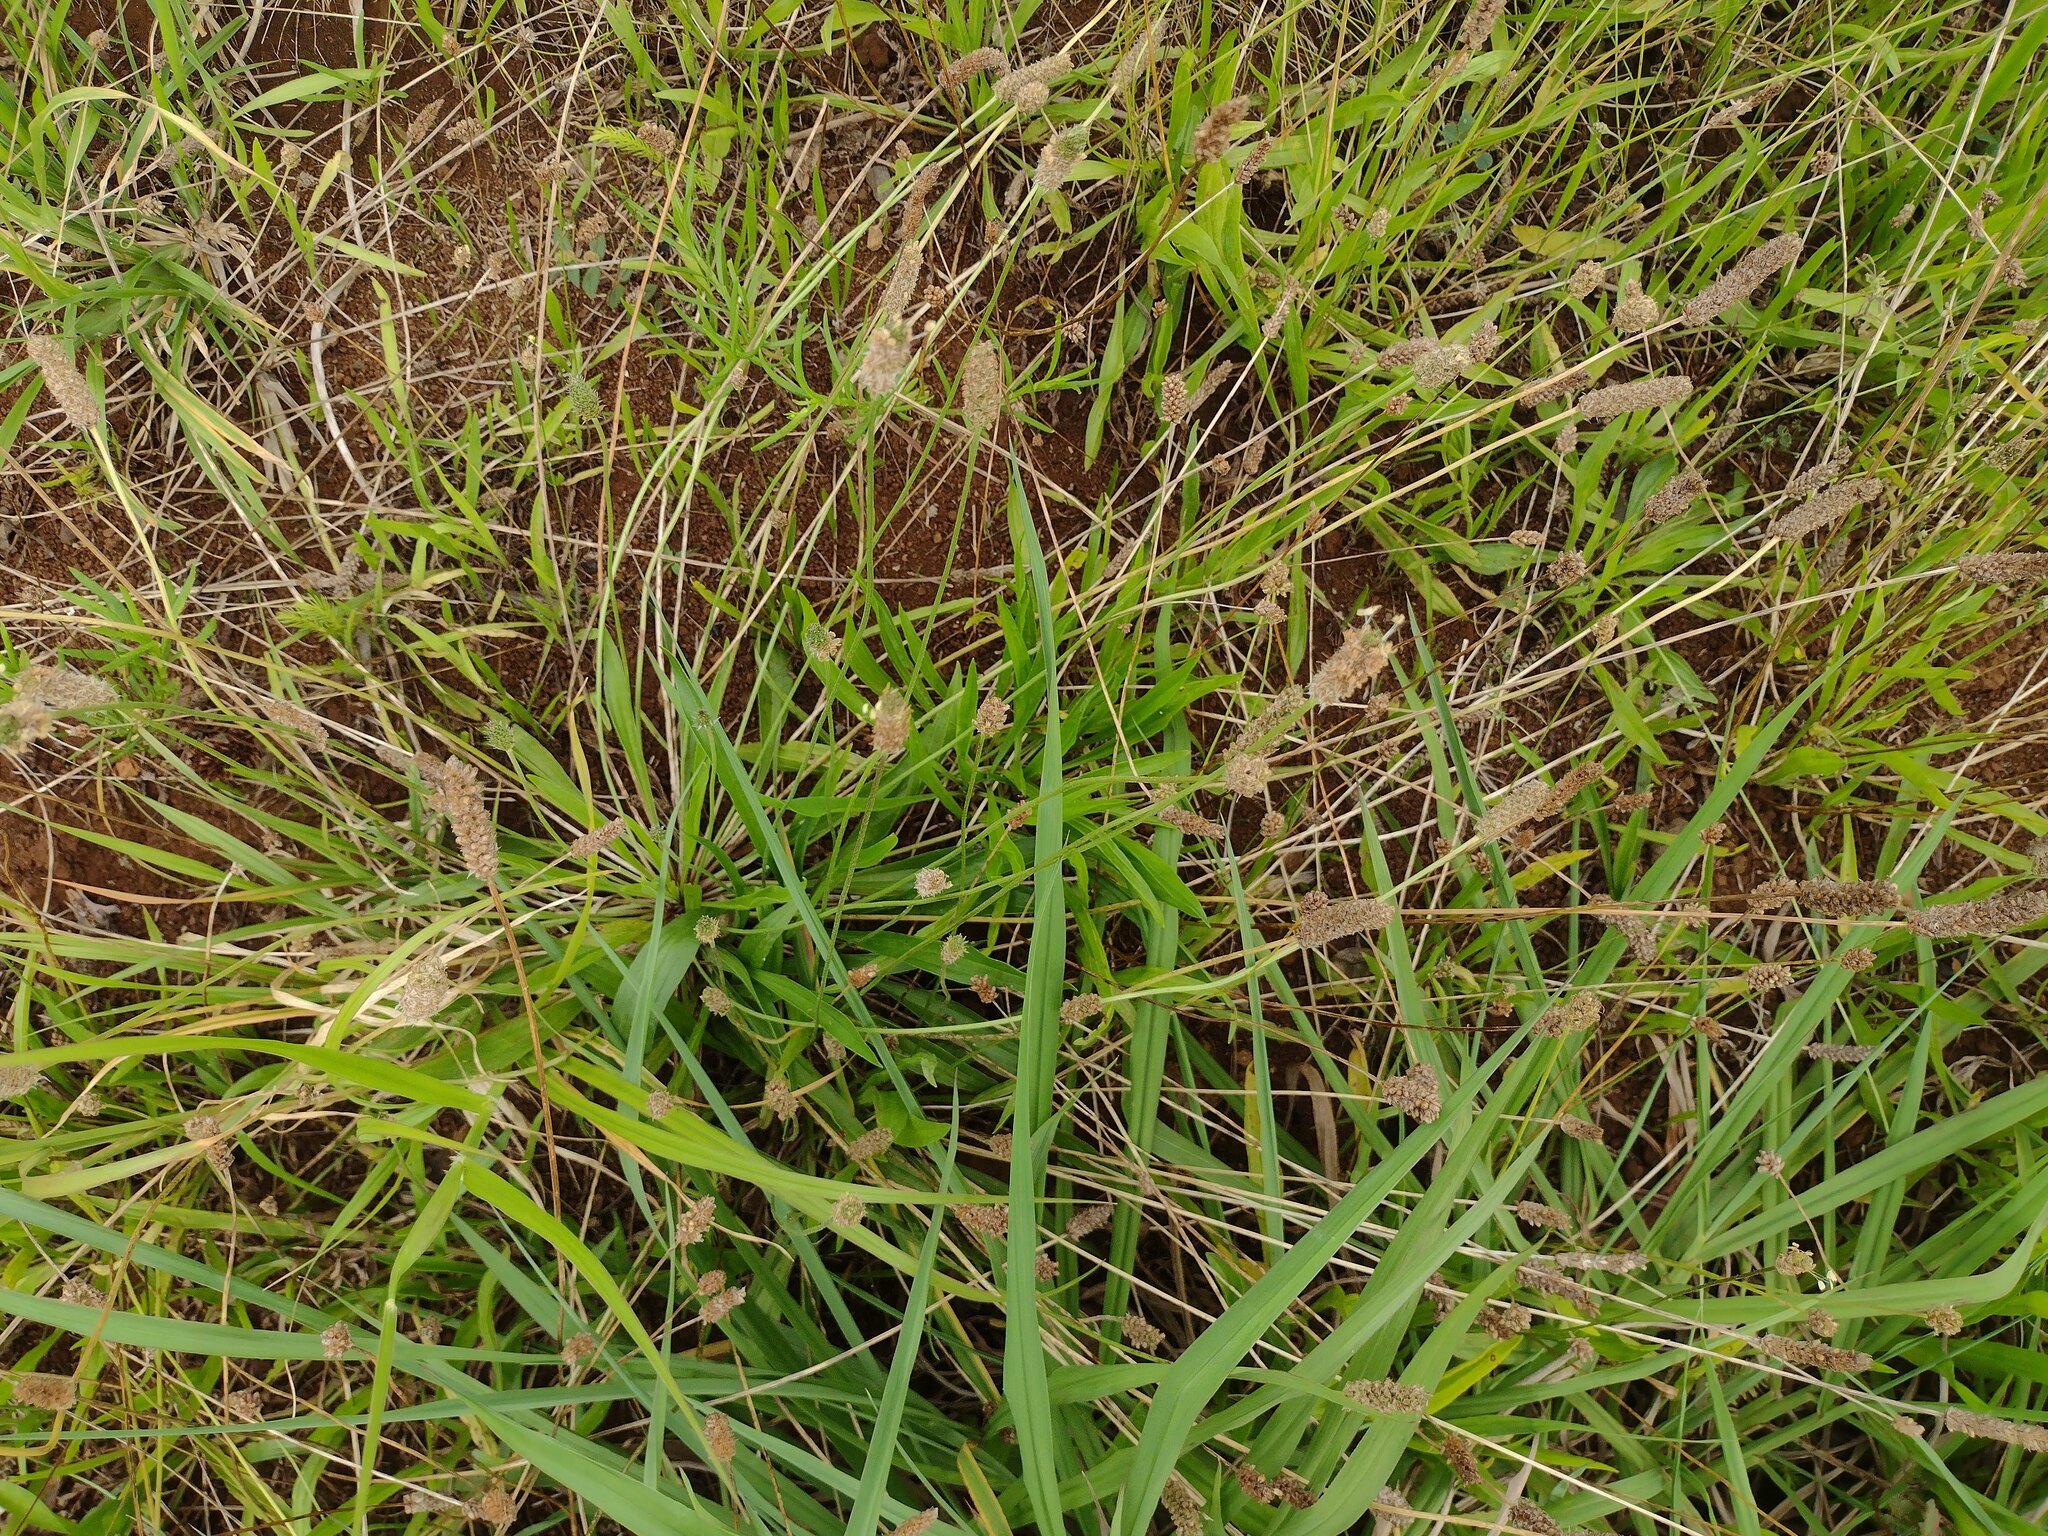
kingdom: Plantae
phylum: Tracheophyta
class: Magnoliopsida
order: Lamiales
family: Plantaginaceae
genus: Plantago
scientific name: Plantago lanceolata
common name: Ribwort plantain
